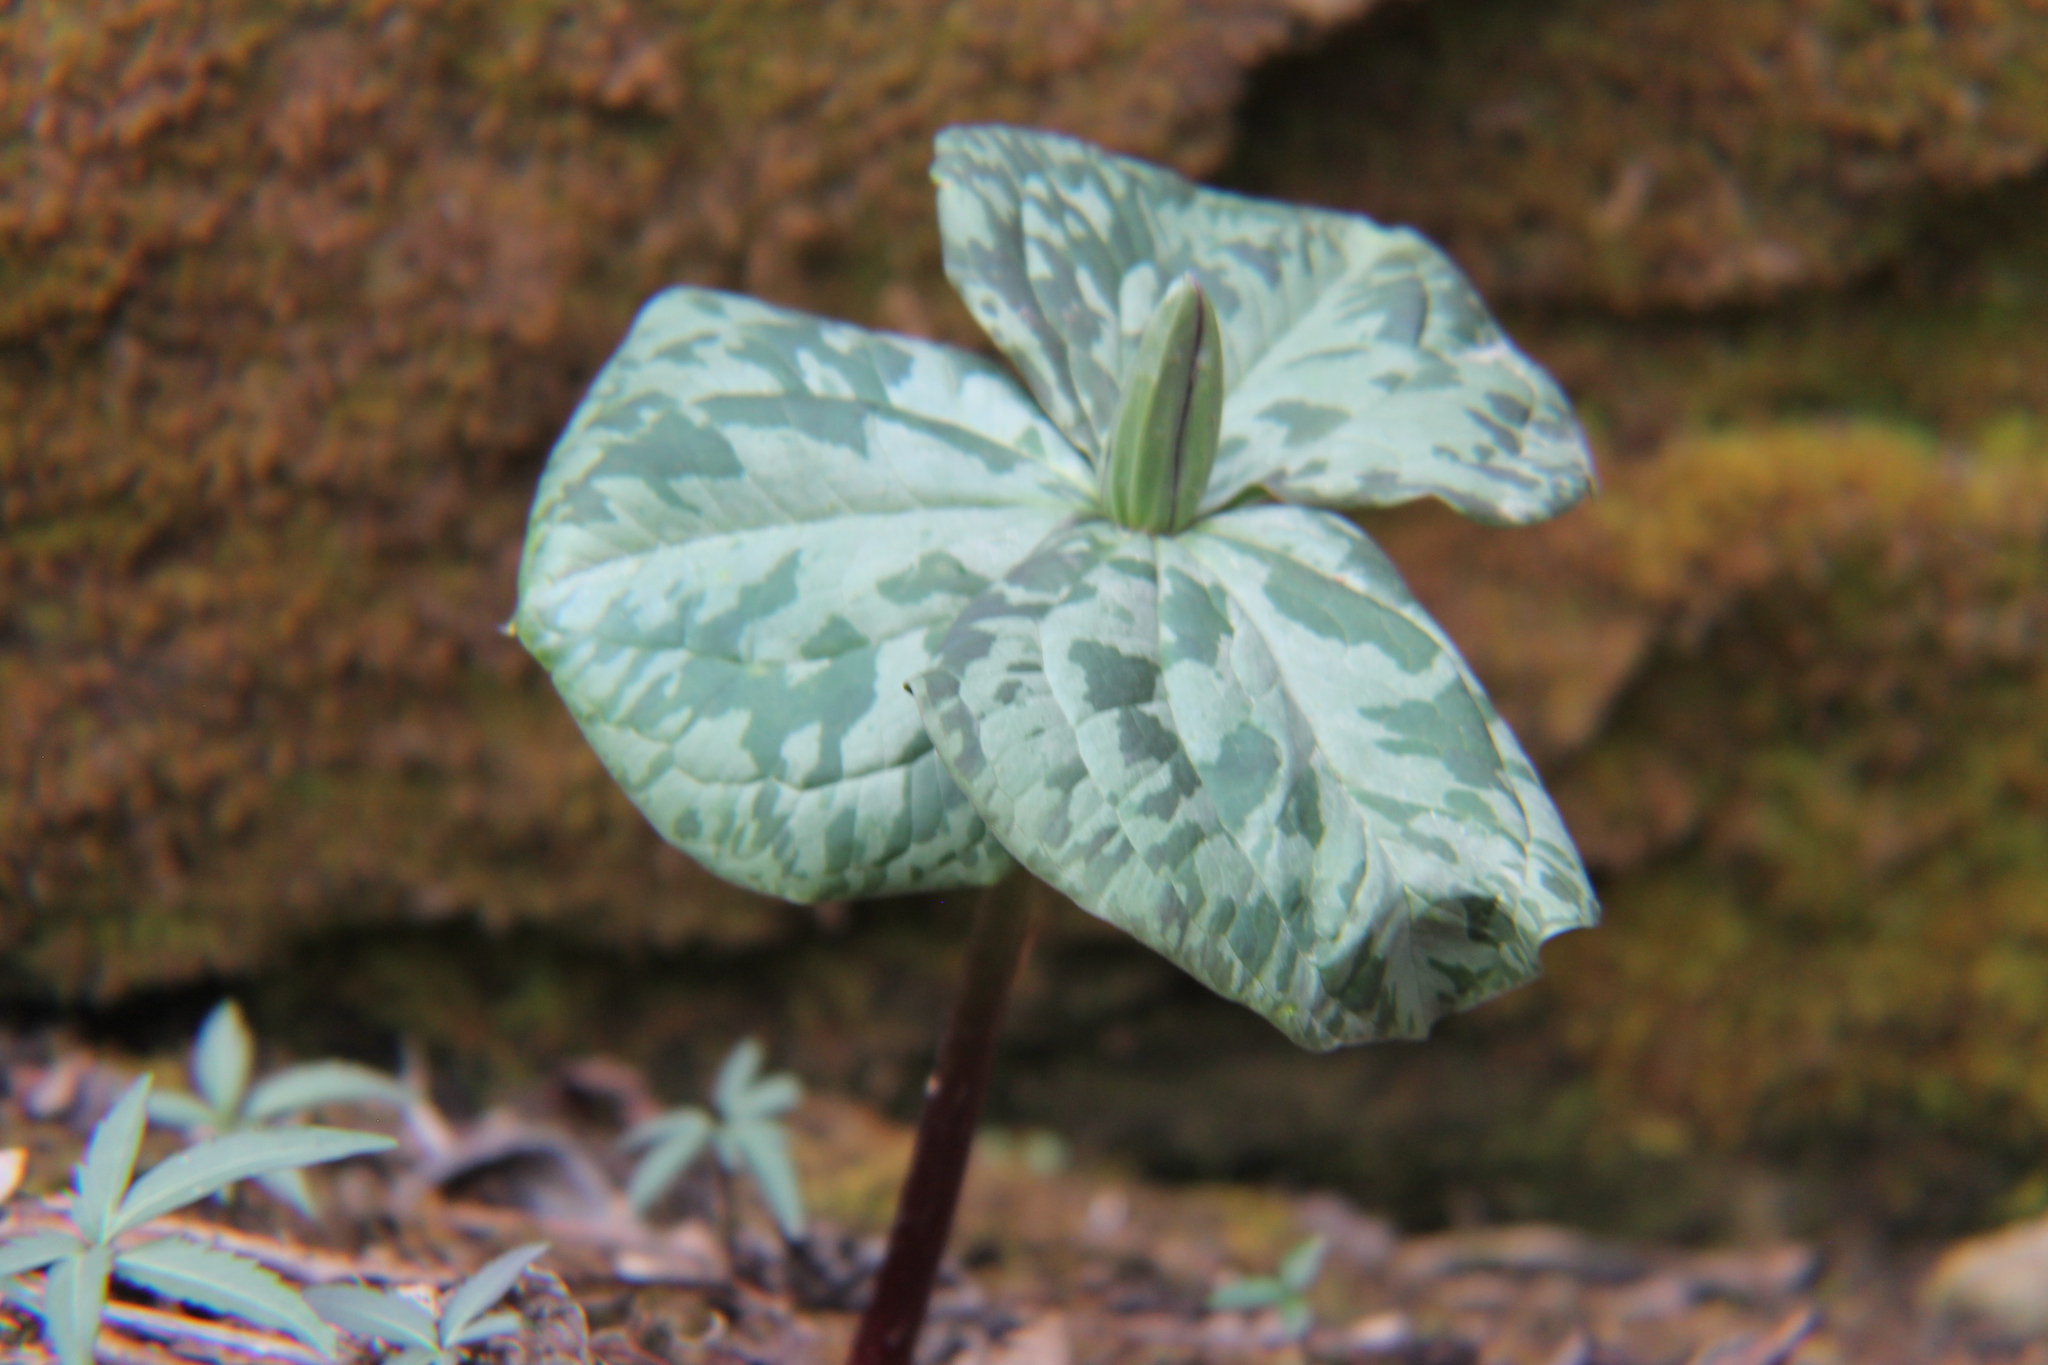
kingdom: Plantae
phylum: Tracheophyta
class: Liliopsida
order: Liliales
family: Melanthiaceae
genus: Trillium
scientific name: Trillium cuneatum
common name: Cuneate trillium
